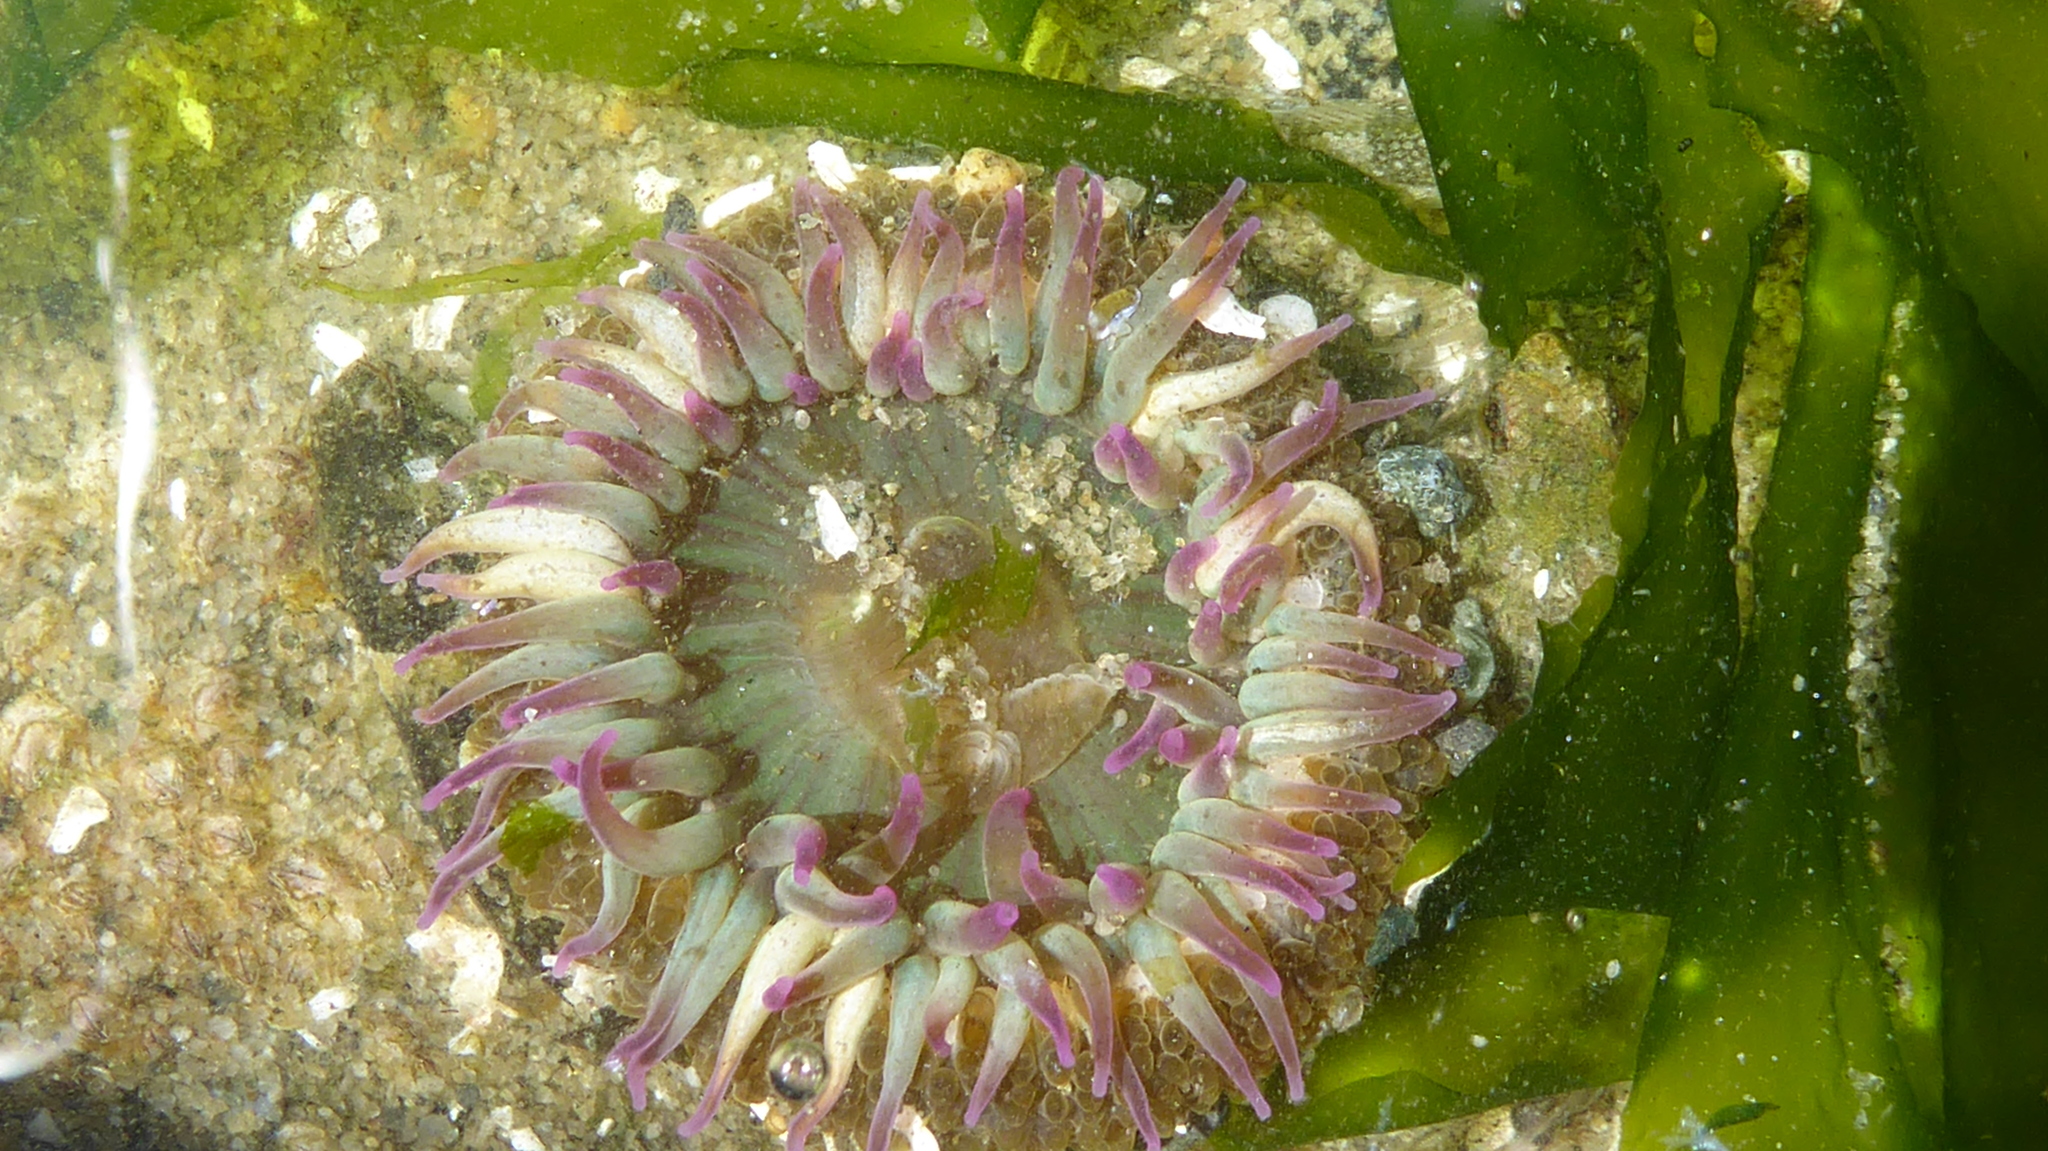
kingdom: Animalia
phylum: Cnidaria
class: Anthozoa
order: Actiniaria
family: Actiniidae
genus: Anthopleura
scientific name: Anthopleura elegantissima
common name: Clonal anemone
